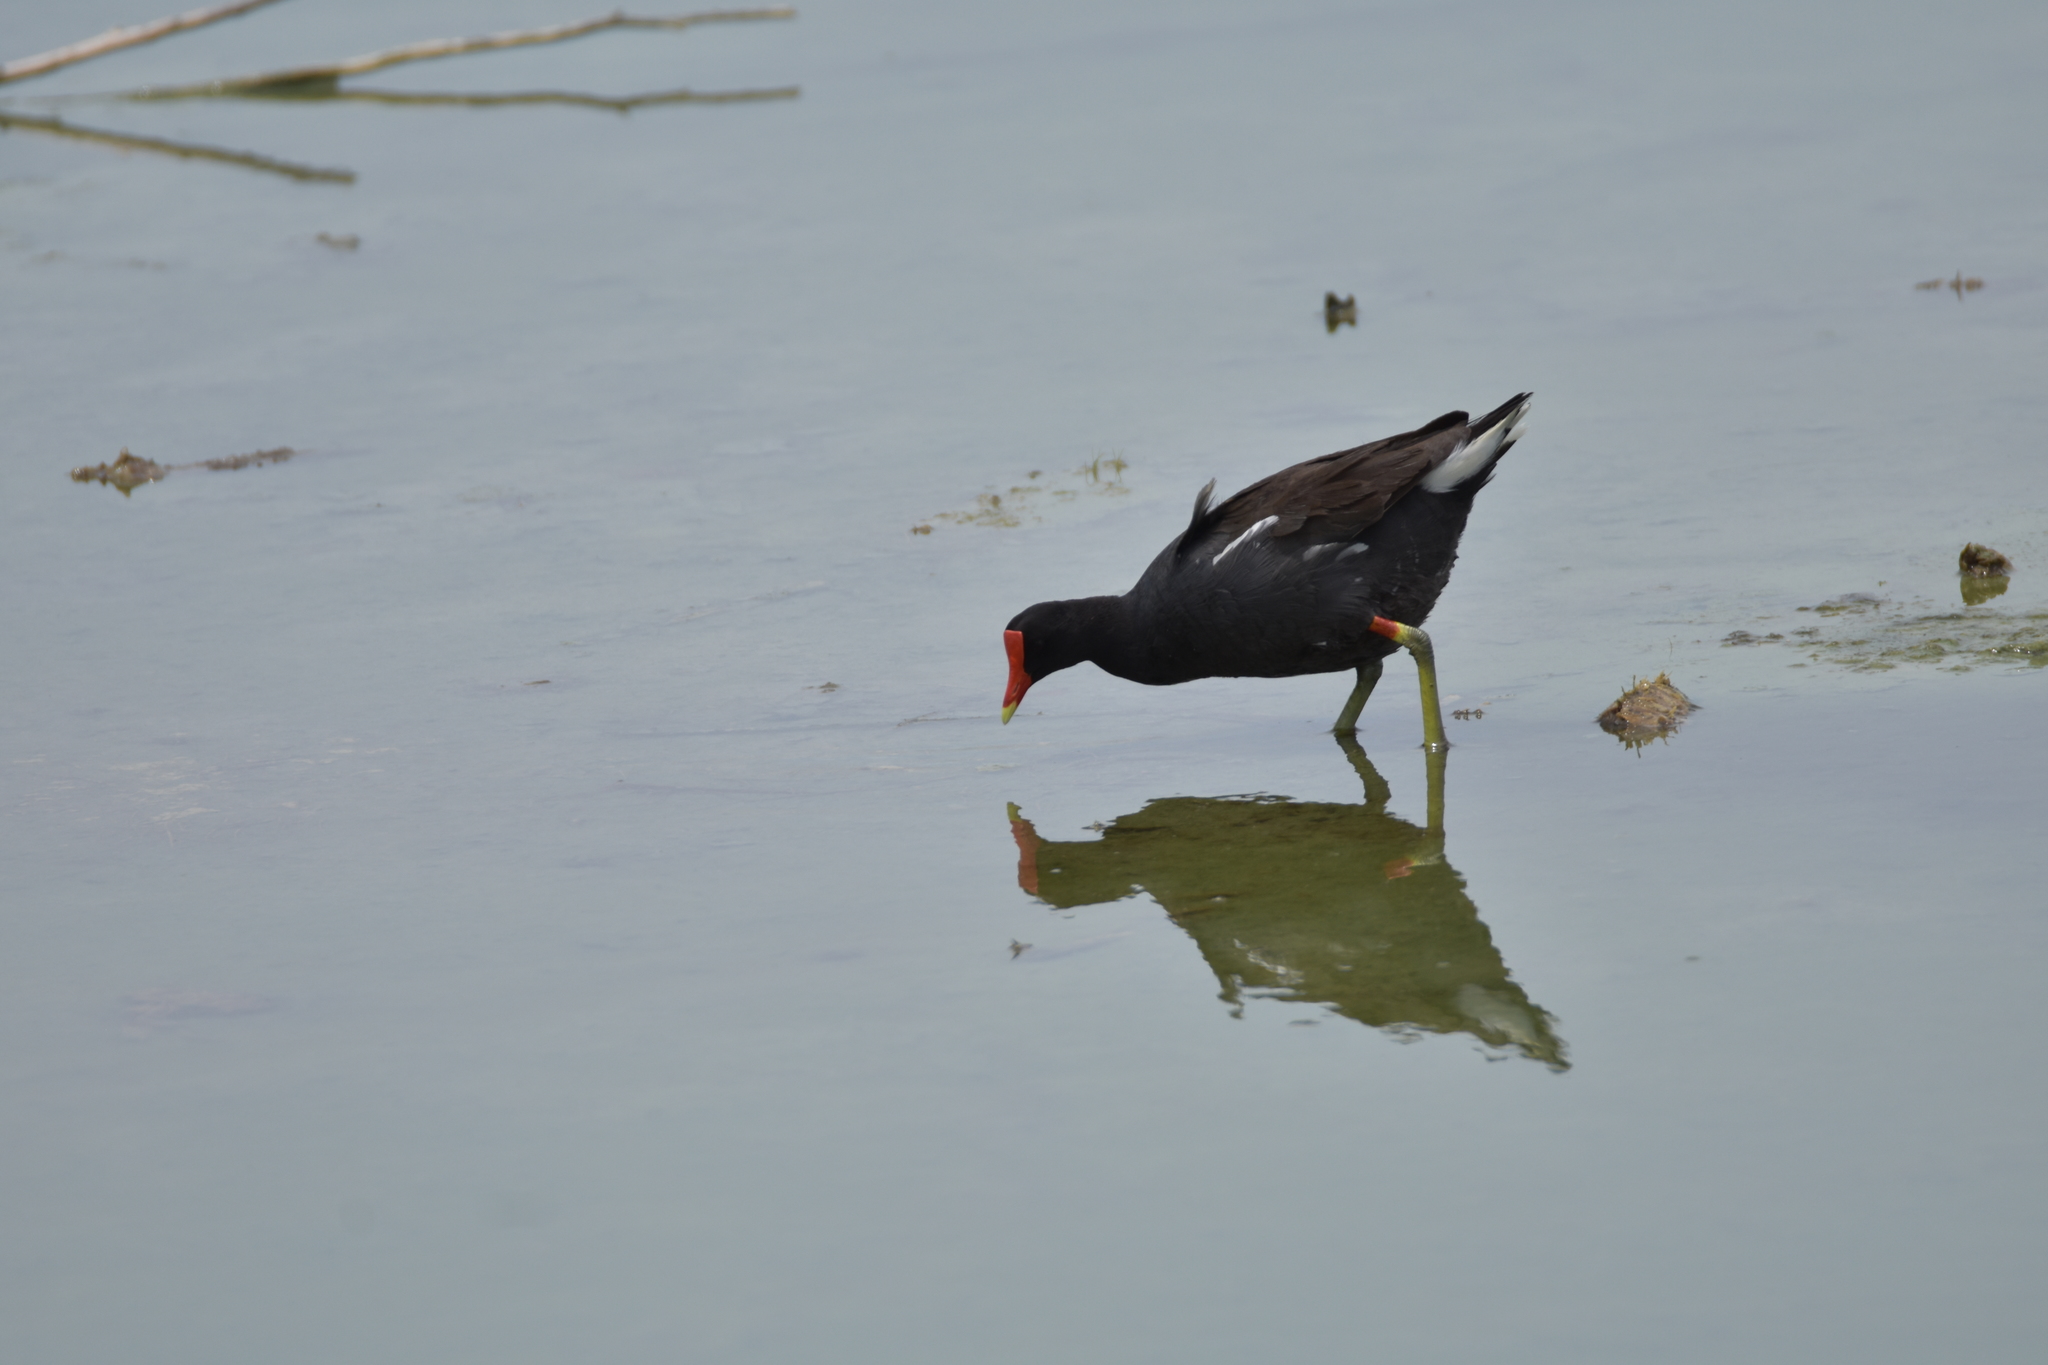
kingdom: Animalia
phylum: Chordata
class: Aves
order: Gruiformes
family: Rallidae
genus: Gallinula
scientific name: Gallinula chloropus
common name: Common moorhen
